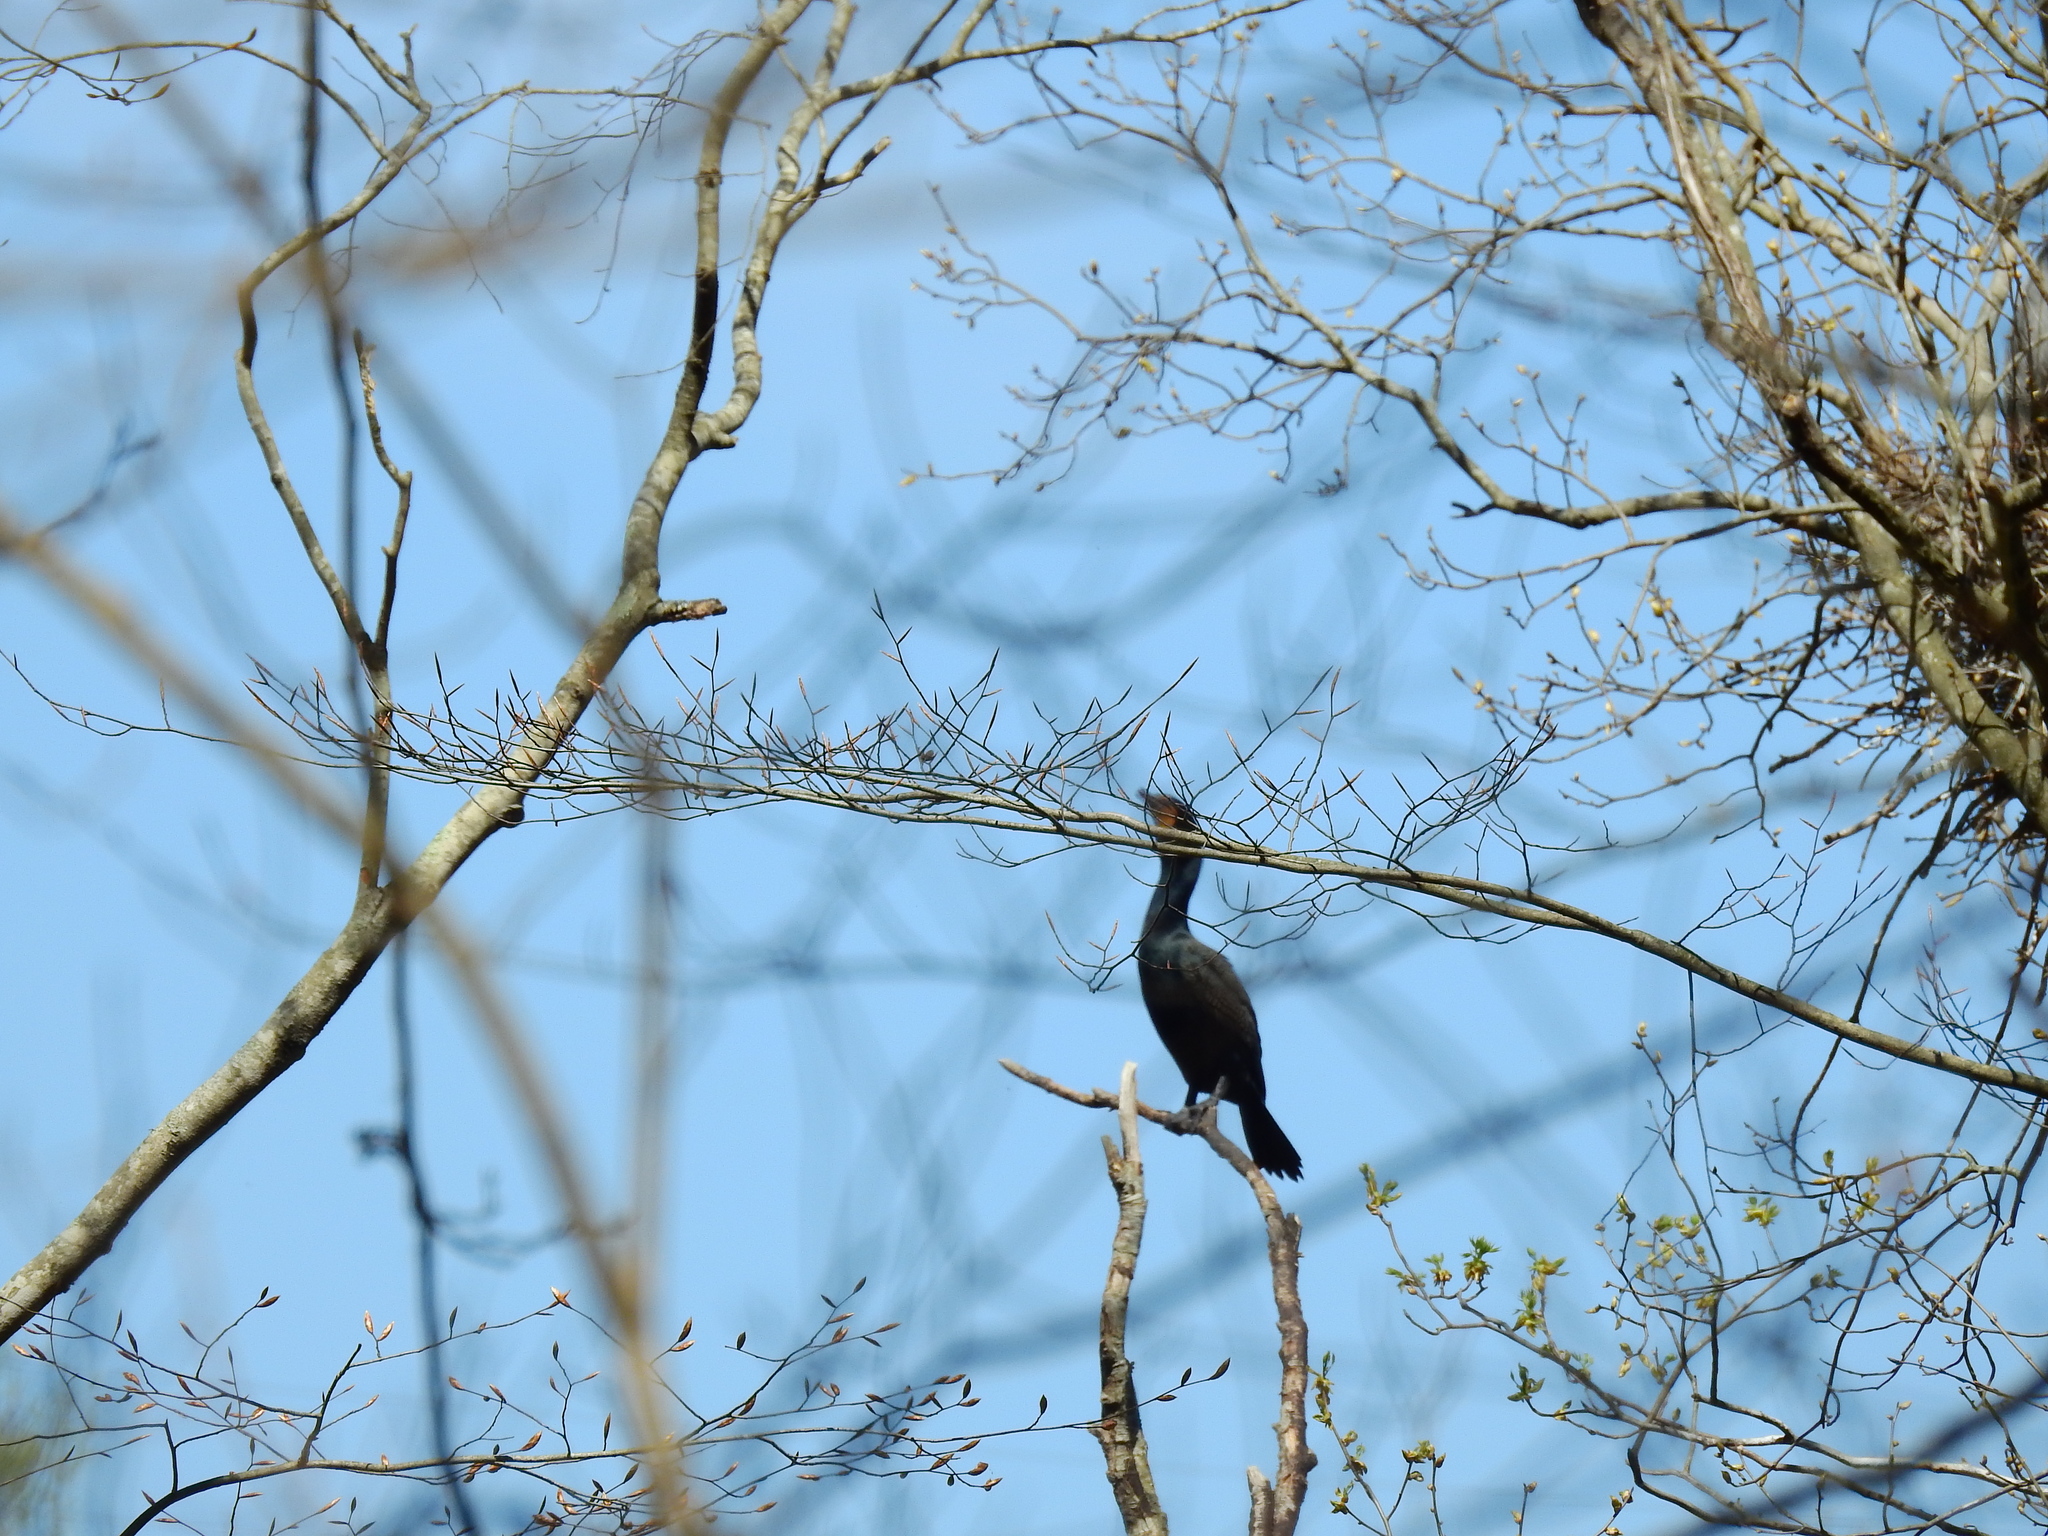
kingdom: Animalia
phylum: Chordata
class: Aves
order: Suliformes
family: Phalacrocoracidae
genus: Phalacrocorax
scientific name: Phalacrocorax auritus
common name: Double-crested cormorant
